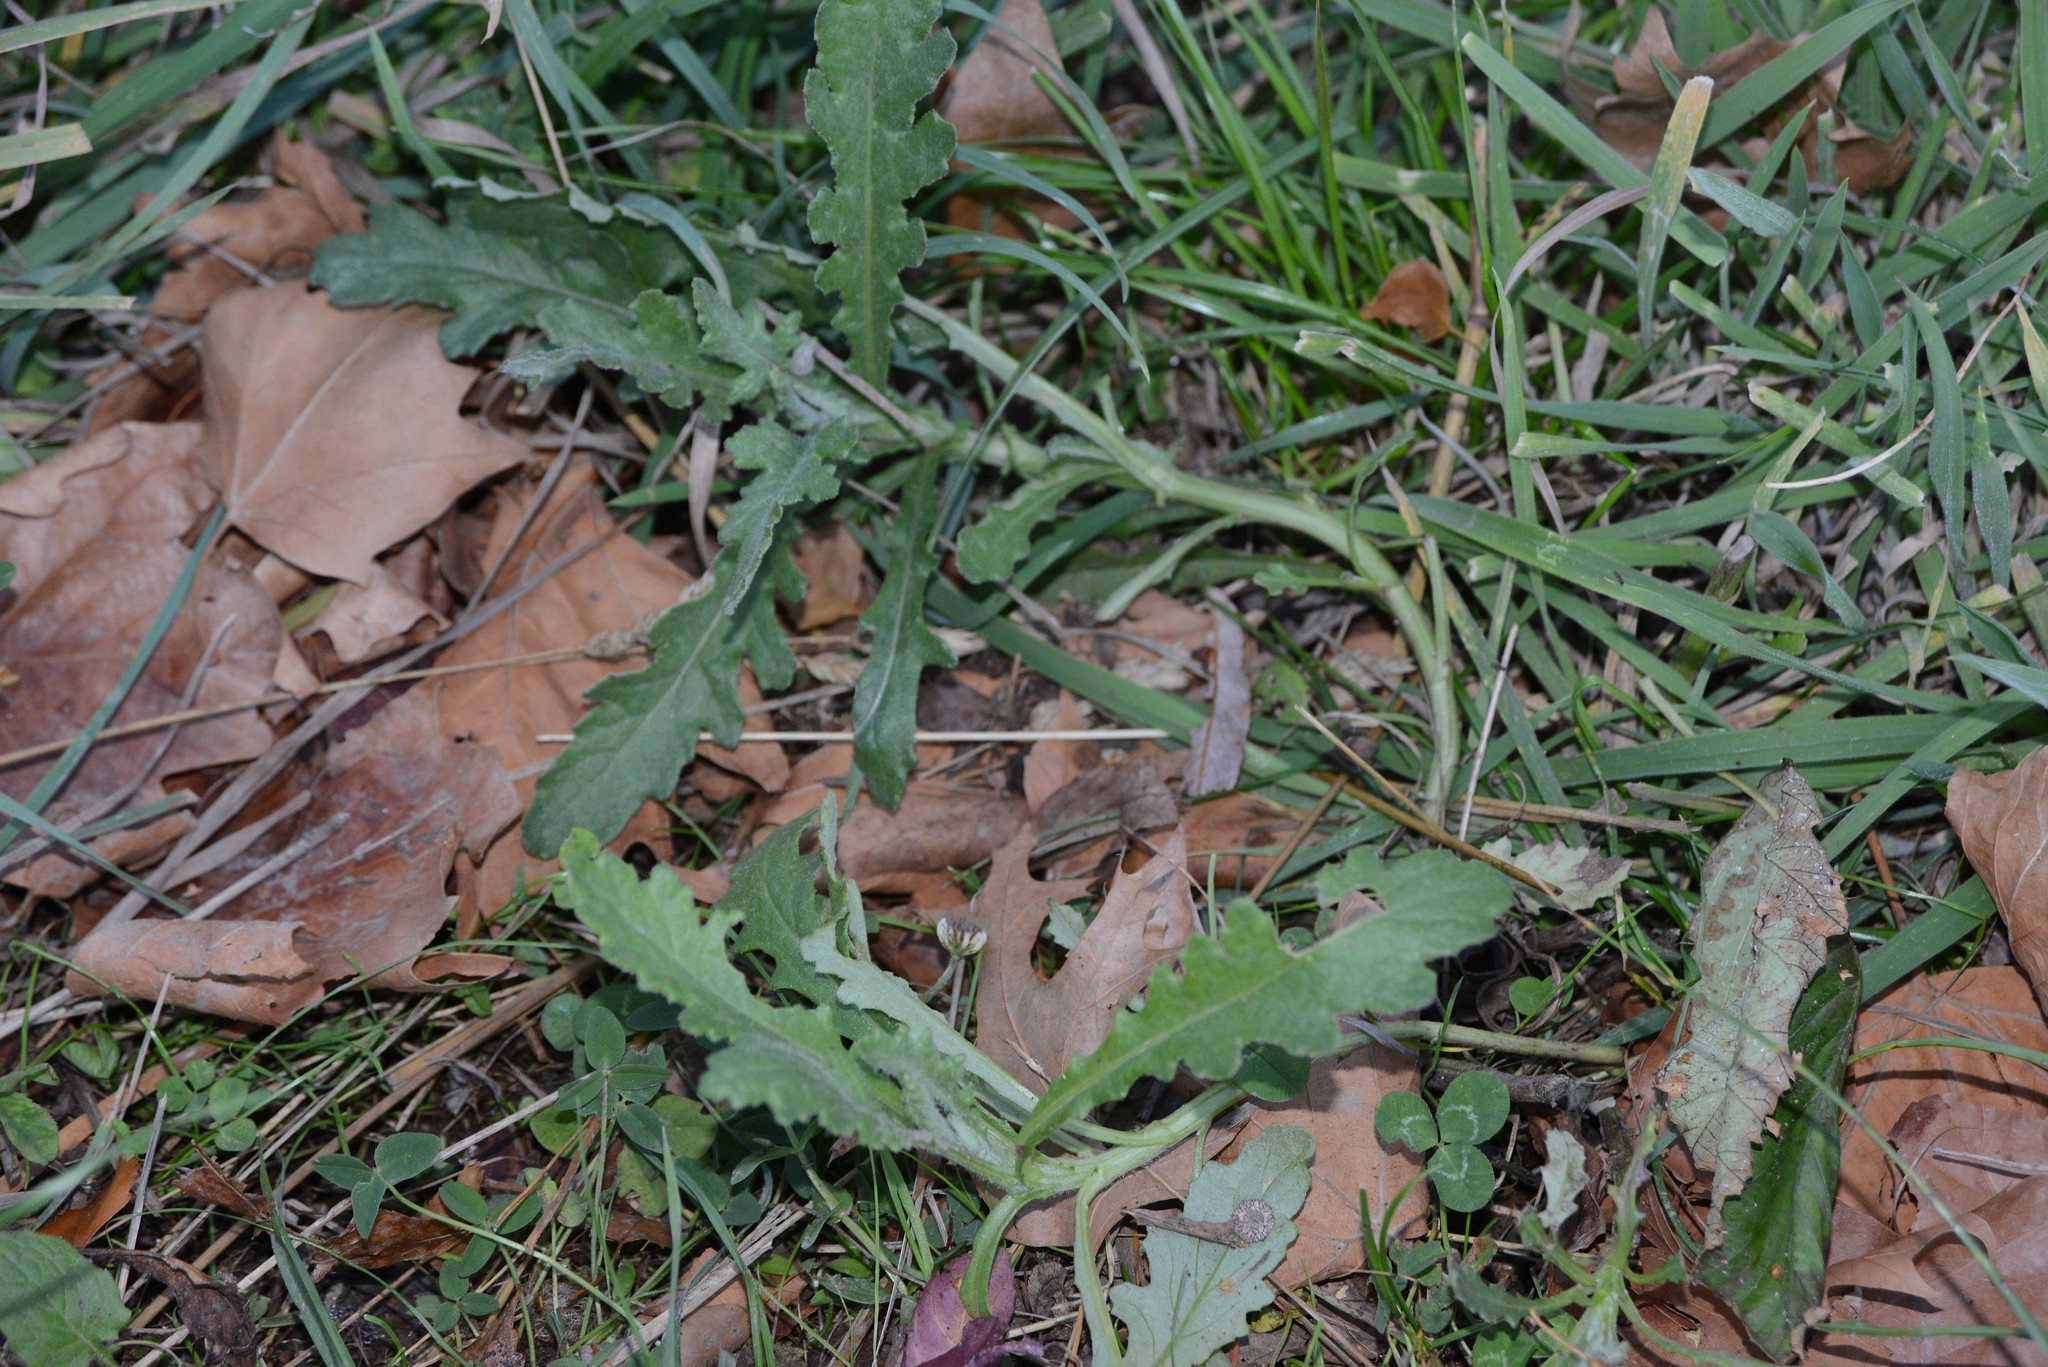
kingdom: Plantae
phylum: Tracheophyta
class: Magnoliopsida
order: Asterales
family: Asteraceae
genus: Senecio
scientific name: Senecio glomeratus
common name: Cutleaf burnweed
